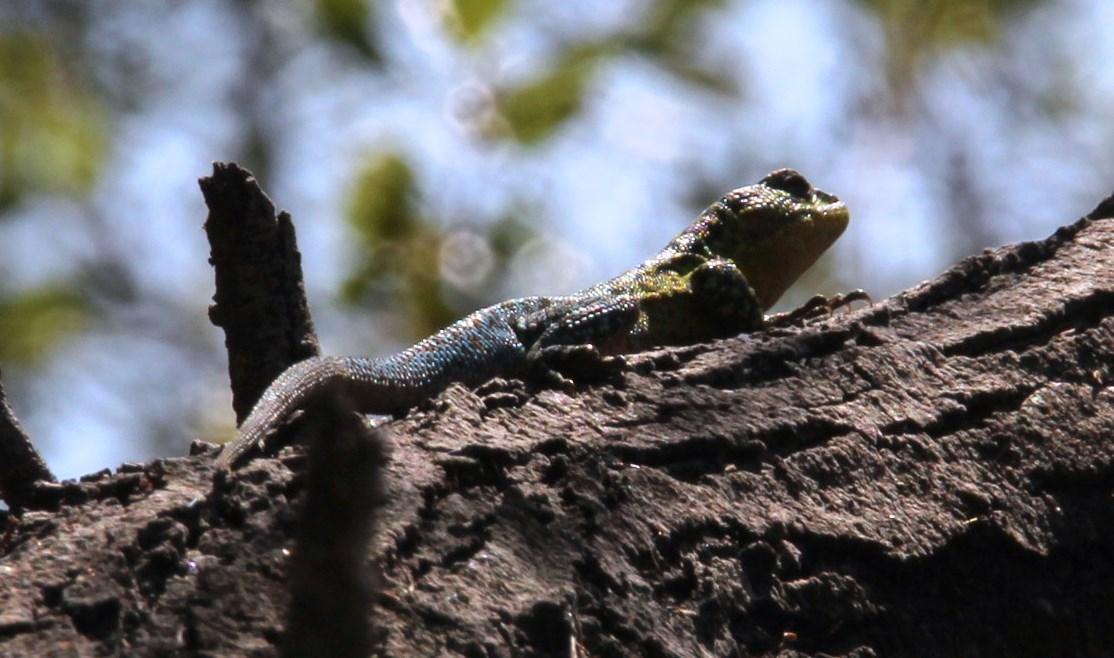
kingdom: Animalia
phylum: Chordata
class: Squamata
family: Liolaemidae
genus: Liolaemus
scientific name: Liolaemus tenuis
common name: Thin tree iguana
